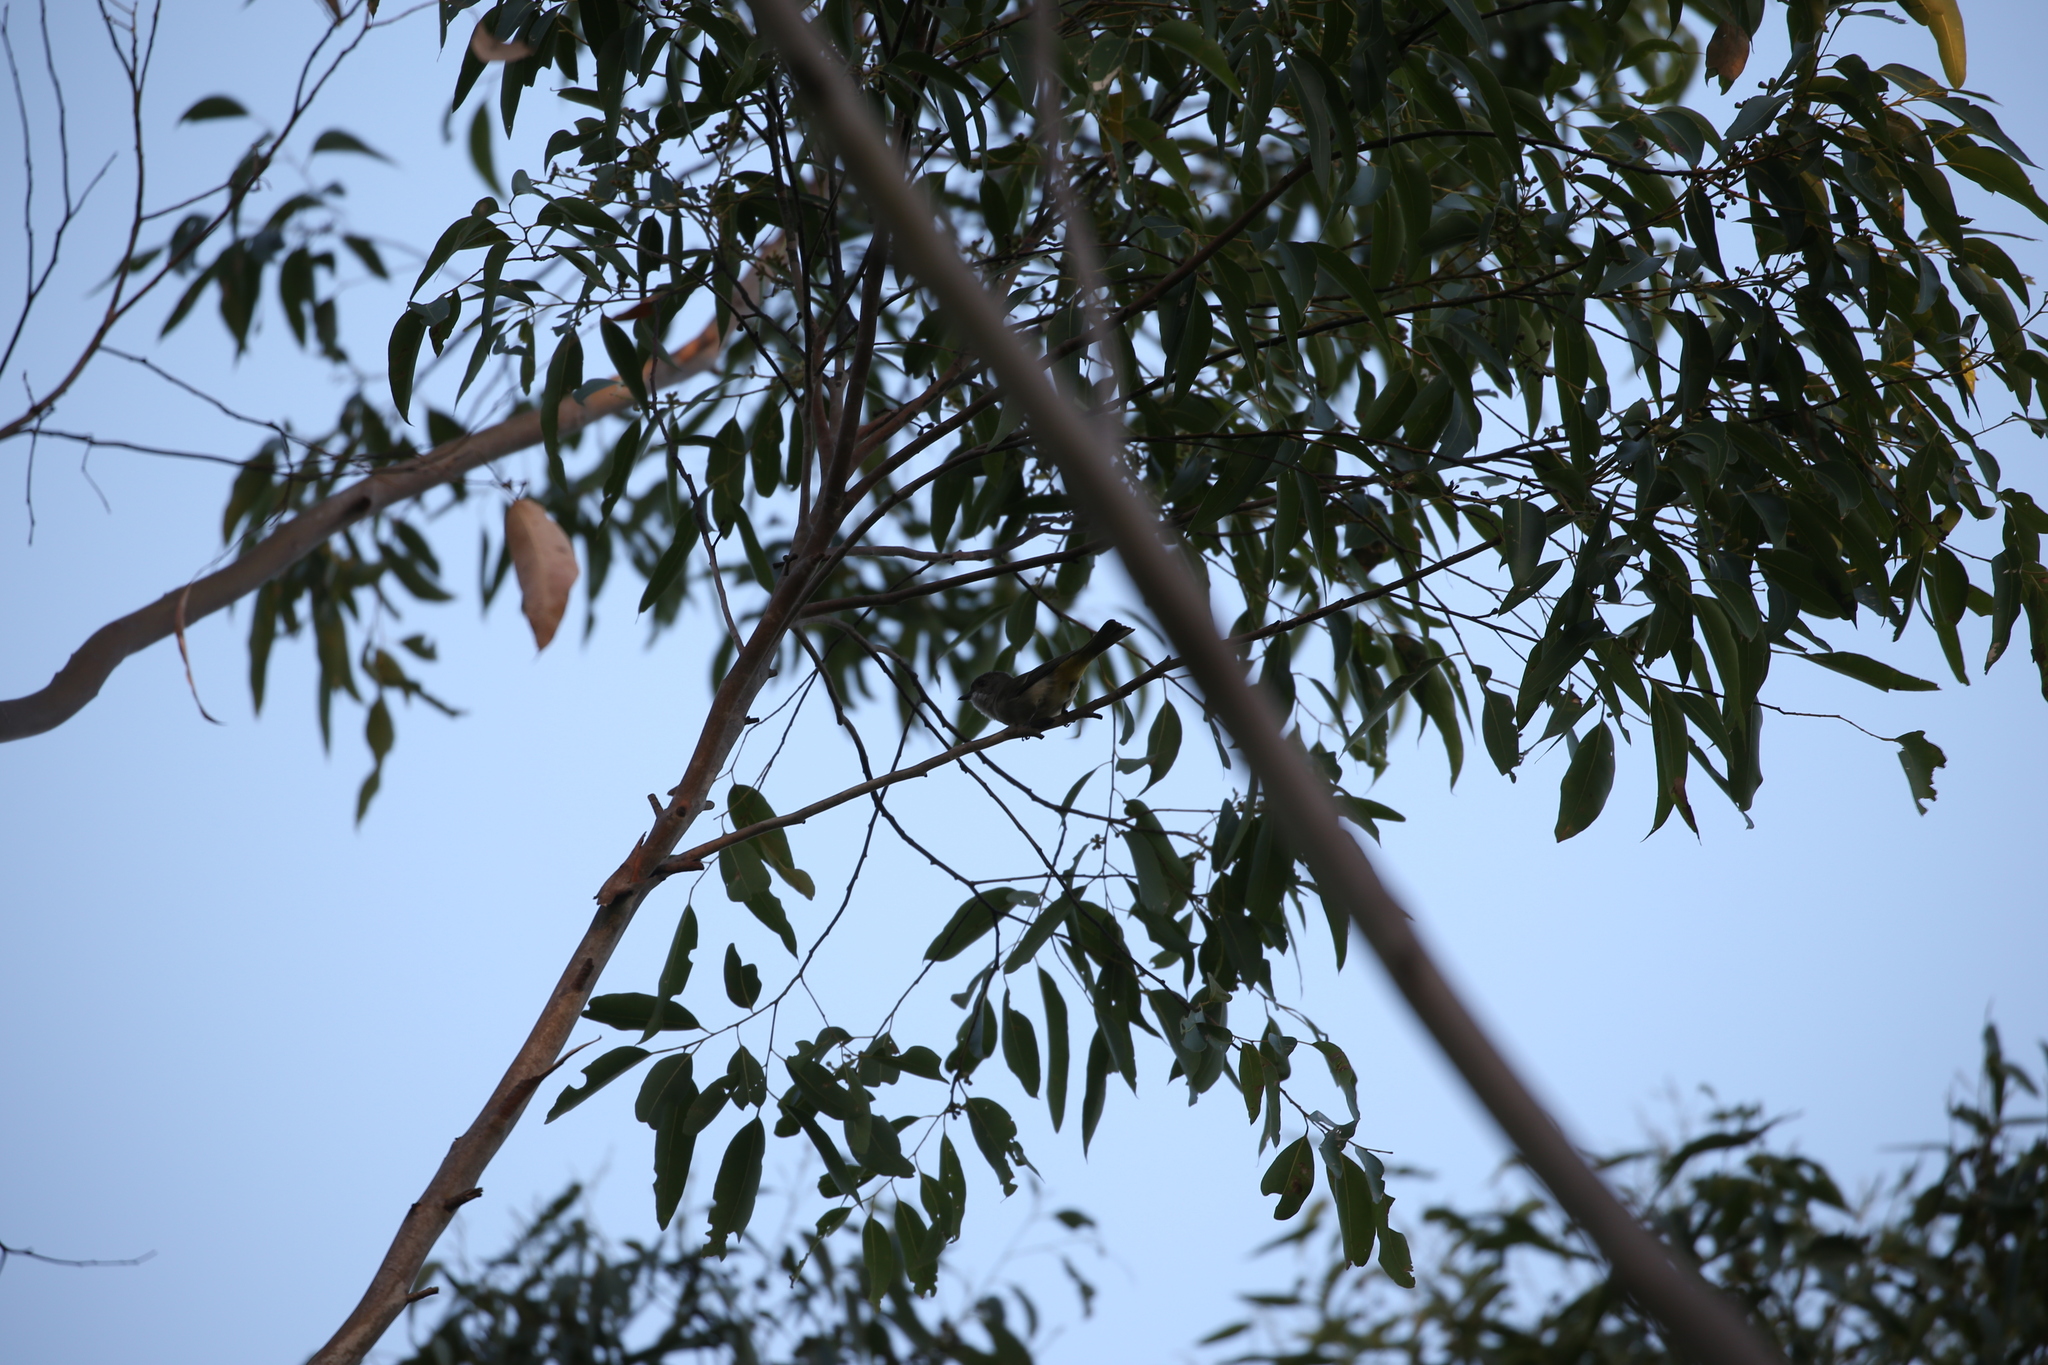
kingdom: Animalia
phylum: Chordata
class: Aves
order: Passeriformes
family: Pachycephalidae
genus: Pachycephala
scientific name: Pachycephala pectoralis
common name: Australian golden whistler
